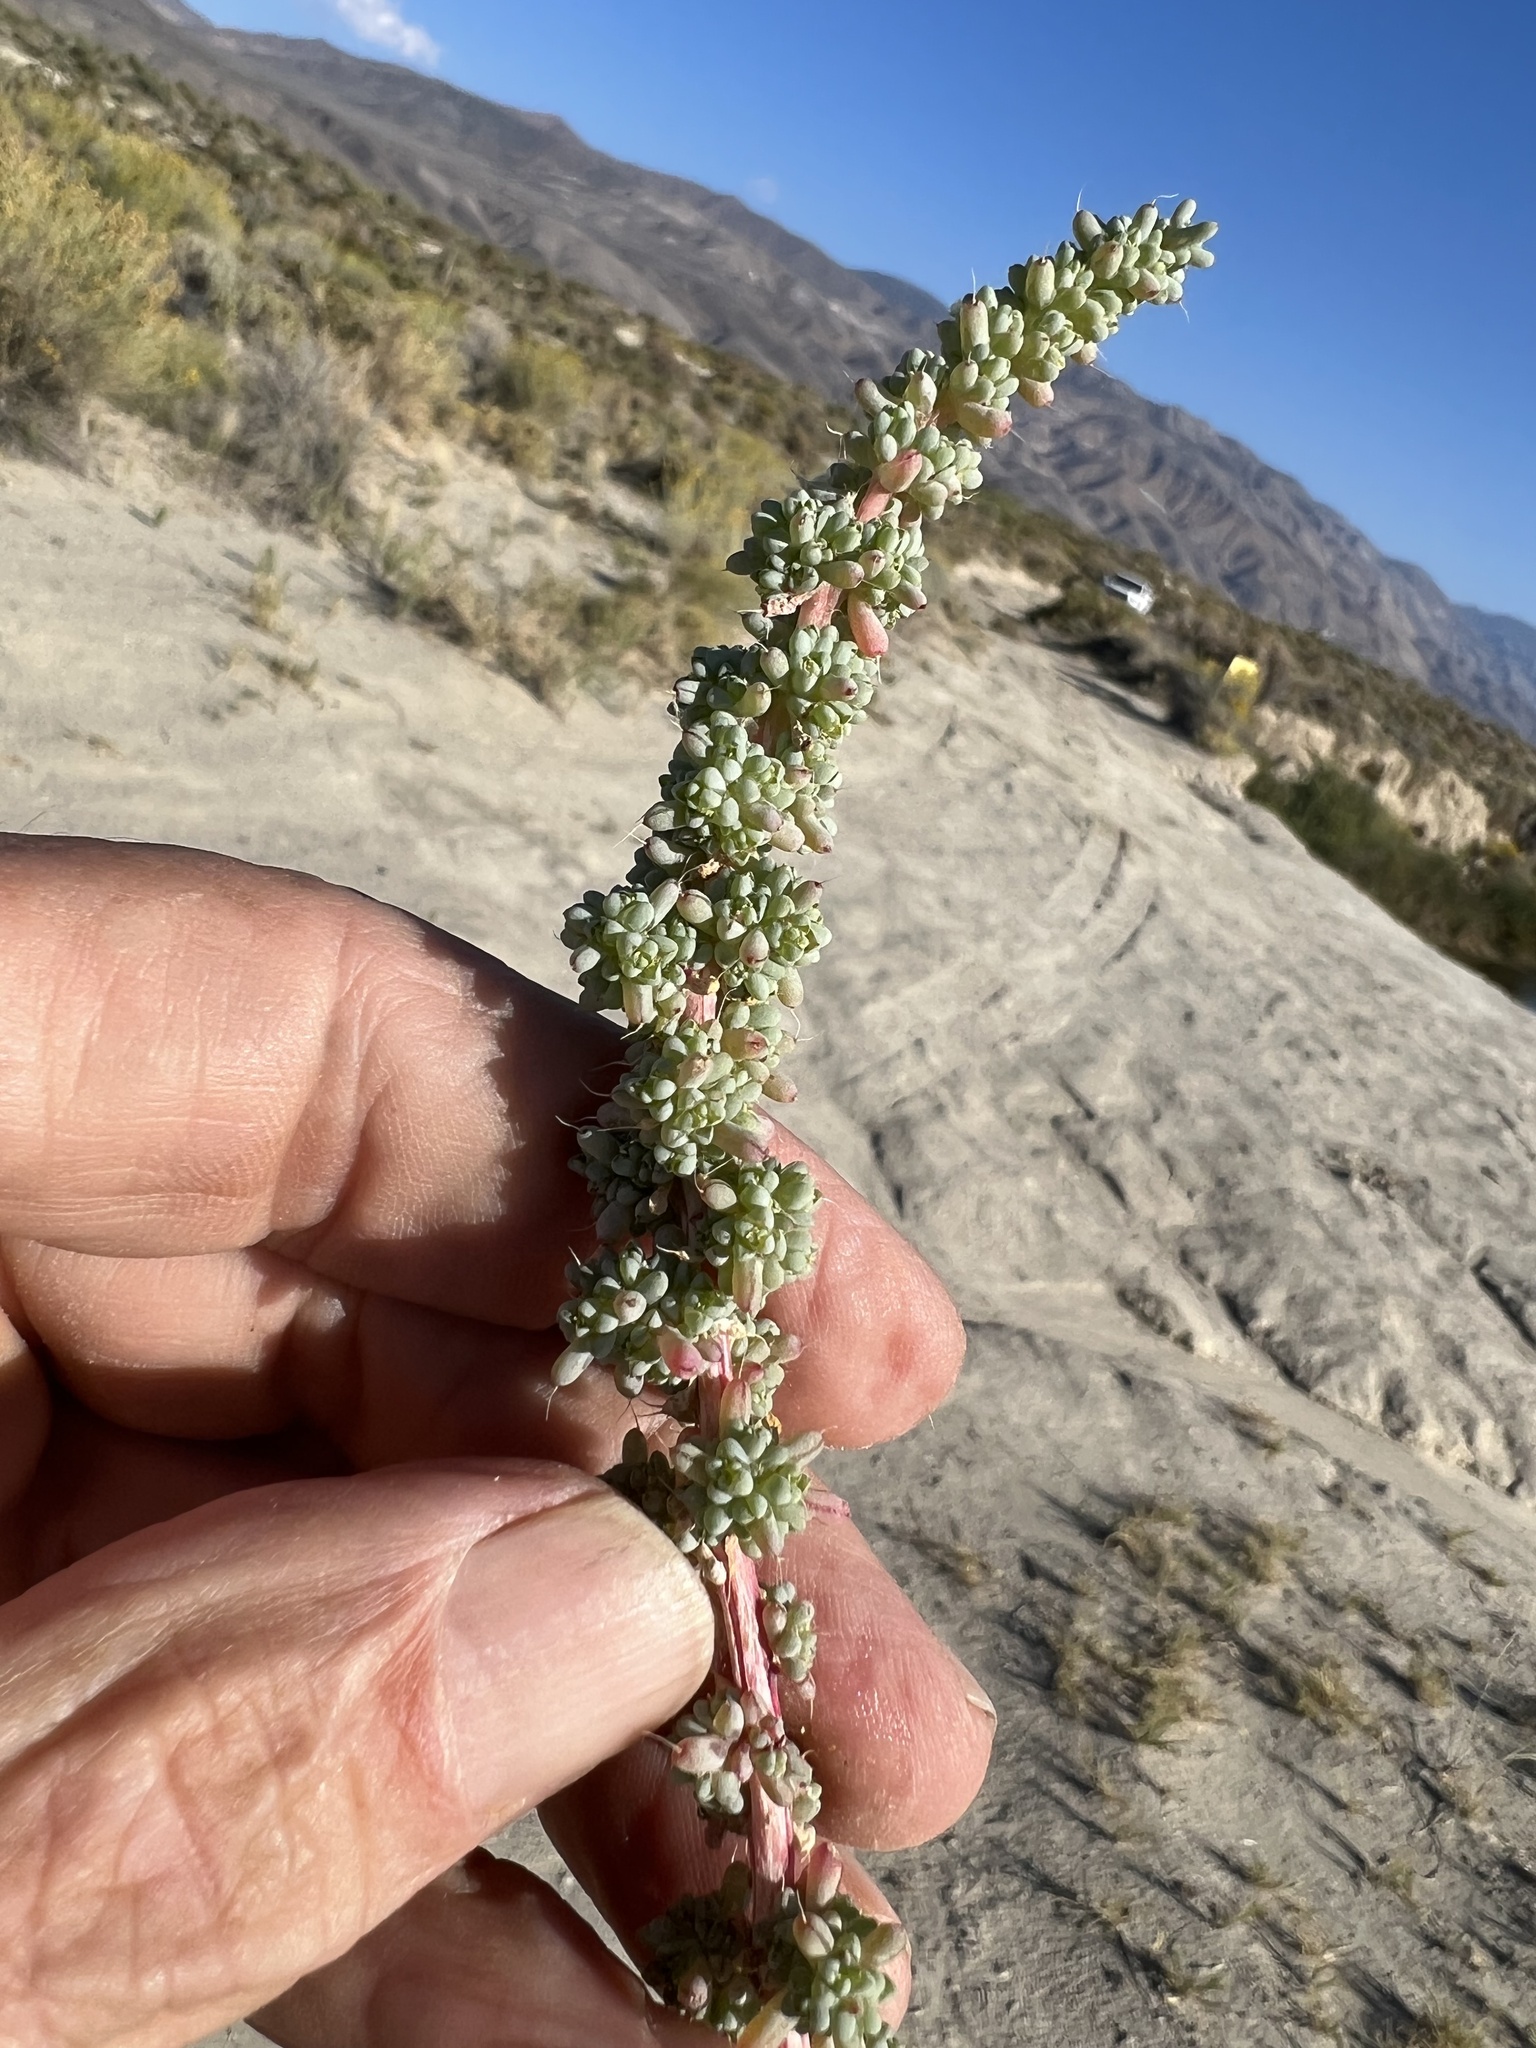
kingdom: Plantae
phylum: Tracheophyta
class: Magnoliopsida
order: Caryophyllales
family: Amaranthaceae
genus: Halogeton
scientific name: Halogeton glomeratus
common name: Saltlover
